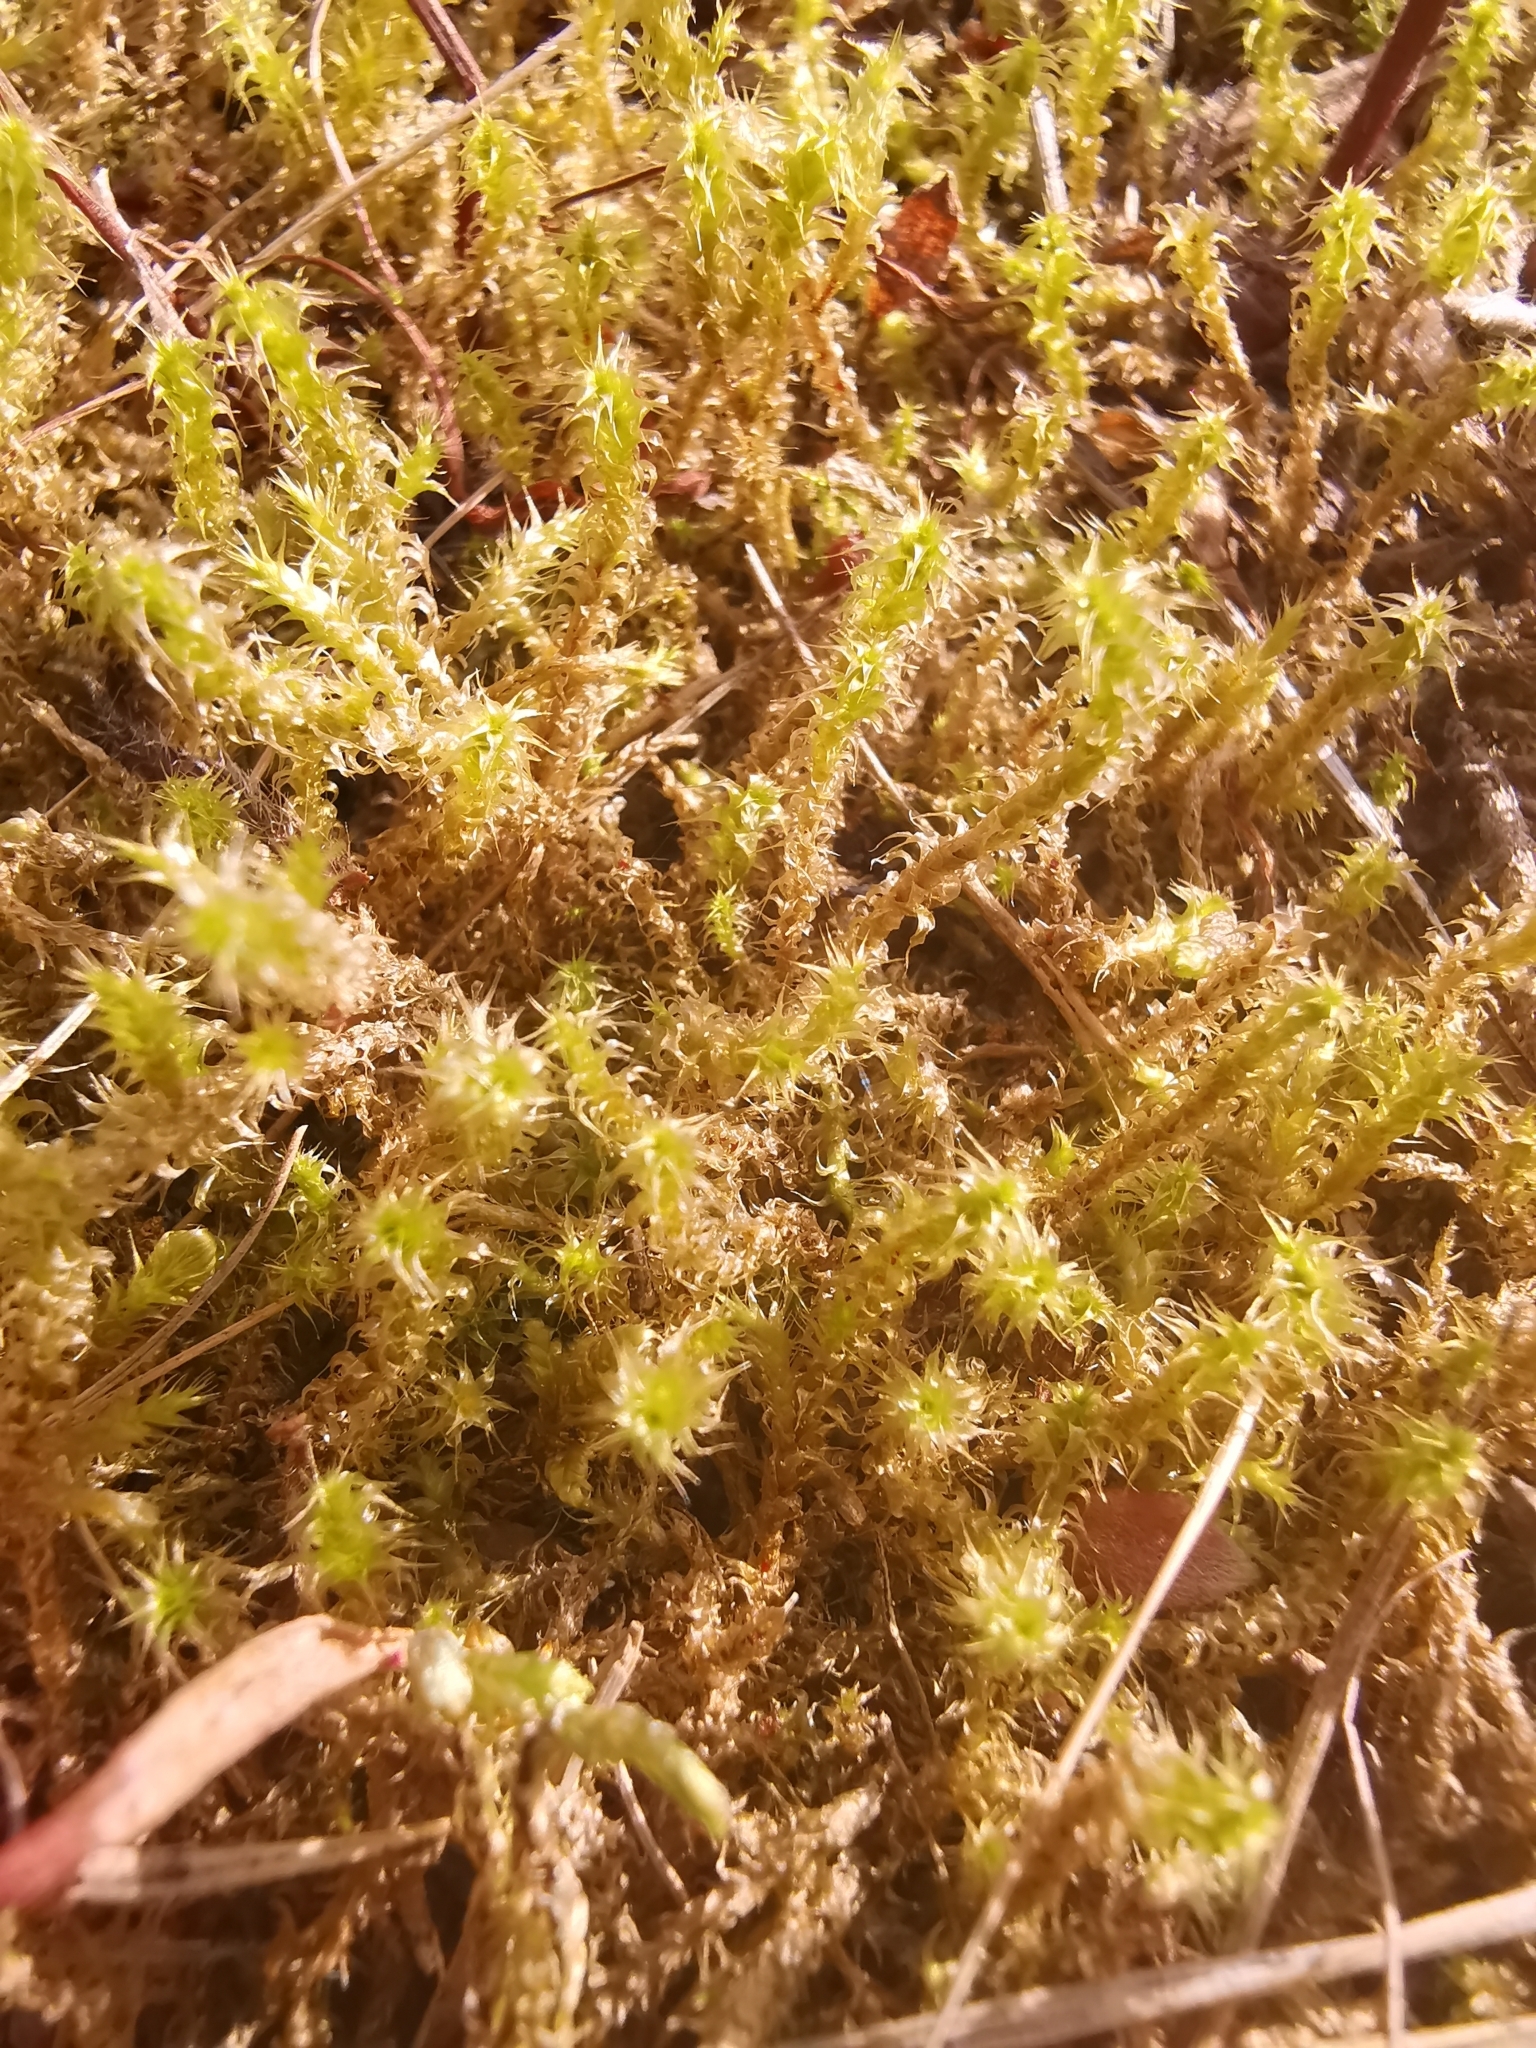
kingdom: Plantae
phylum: Bryophyta
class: Bryopsida
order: Hypnales
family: Hylocomiaceae
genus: Rhytidiadelphus
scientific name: Rhytidiadelphus squarrosus
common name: Springy turf-moss
